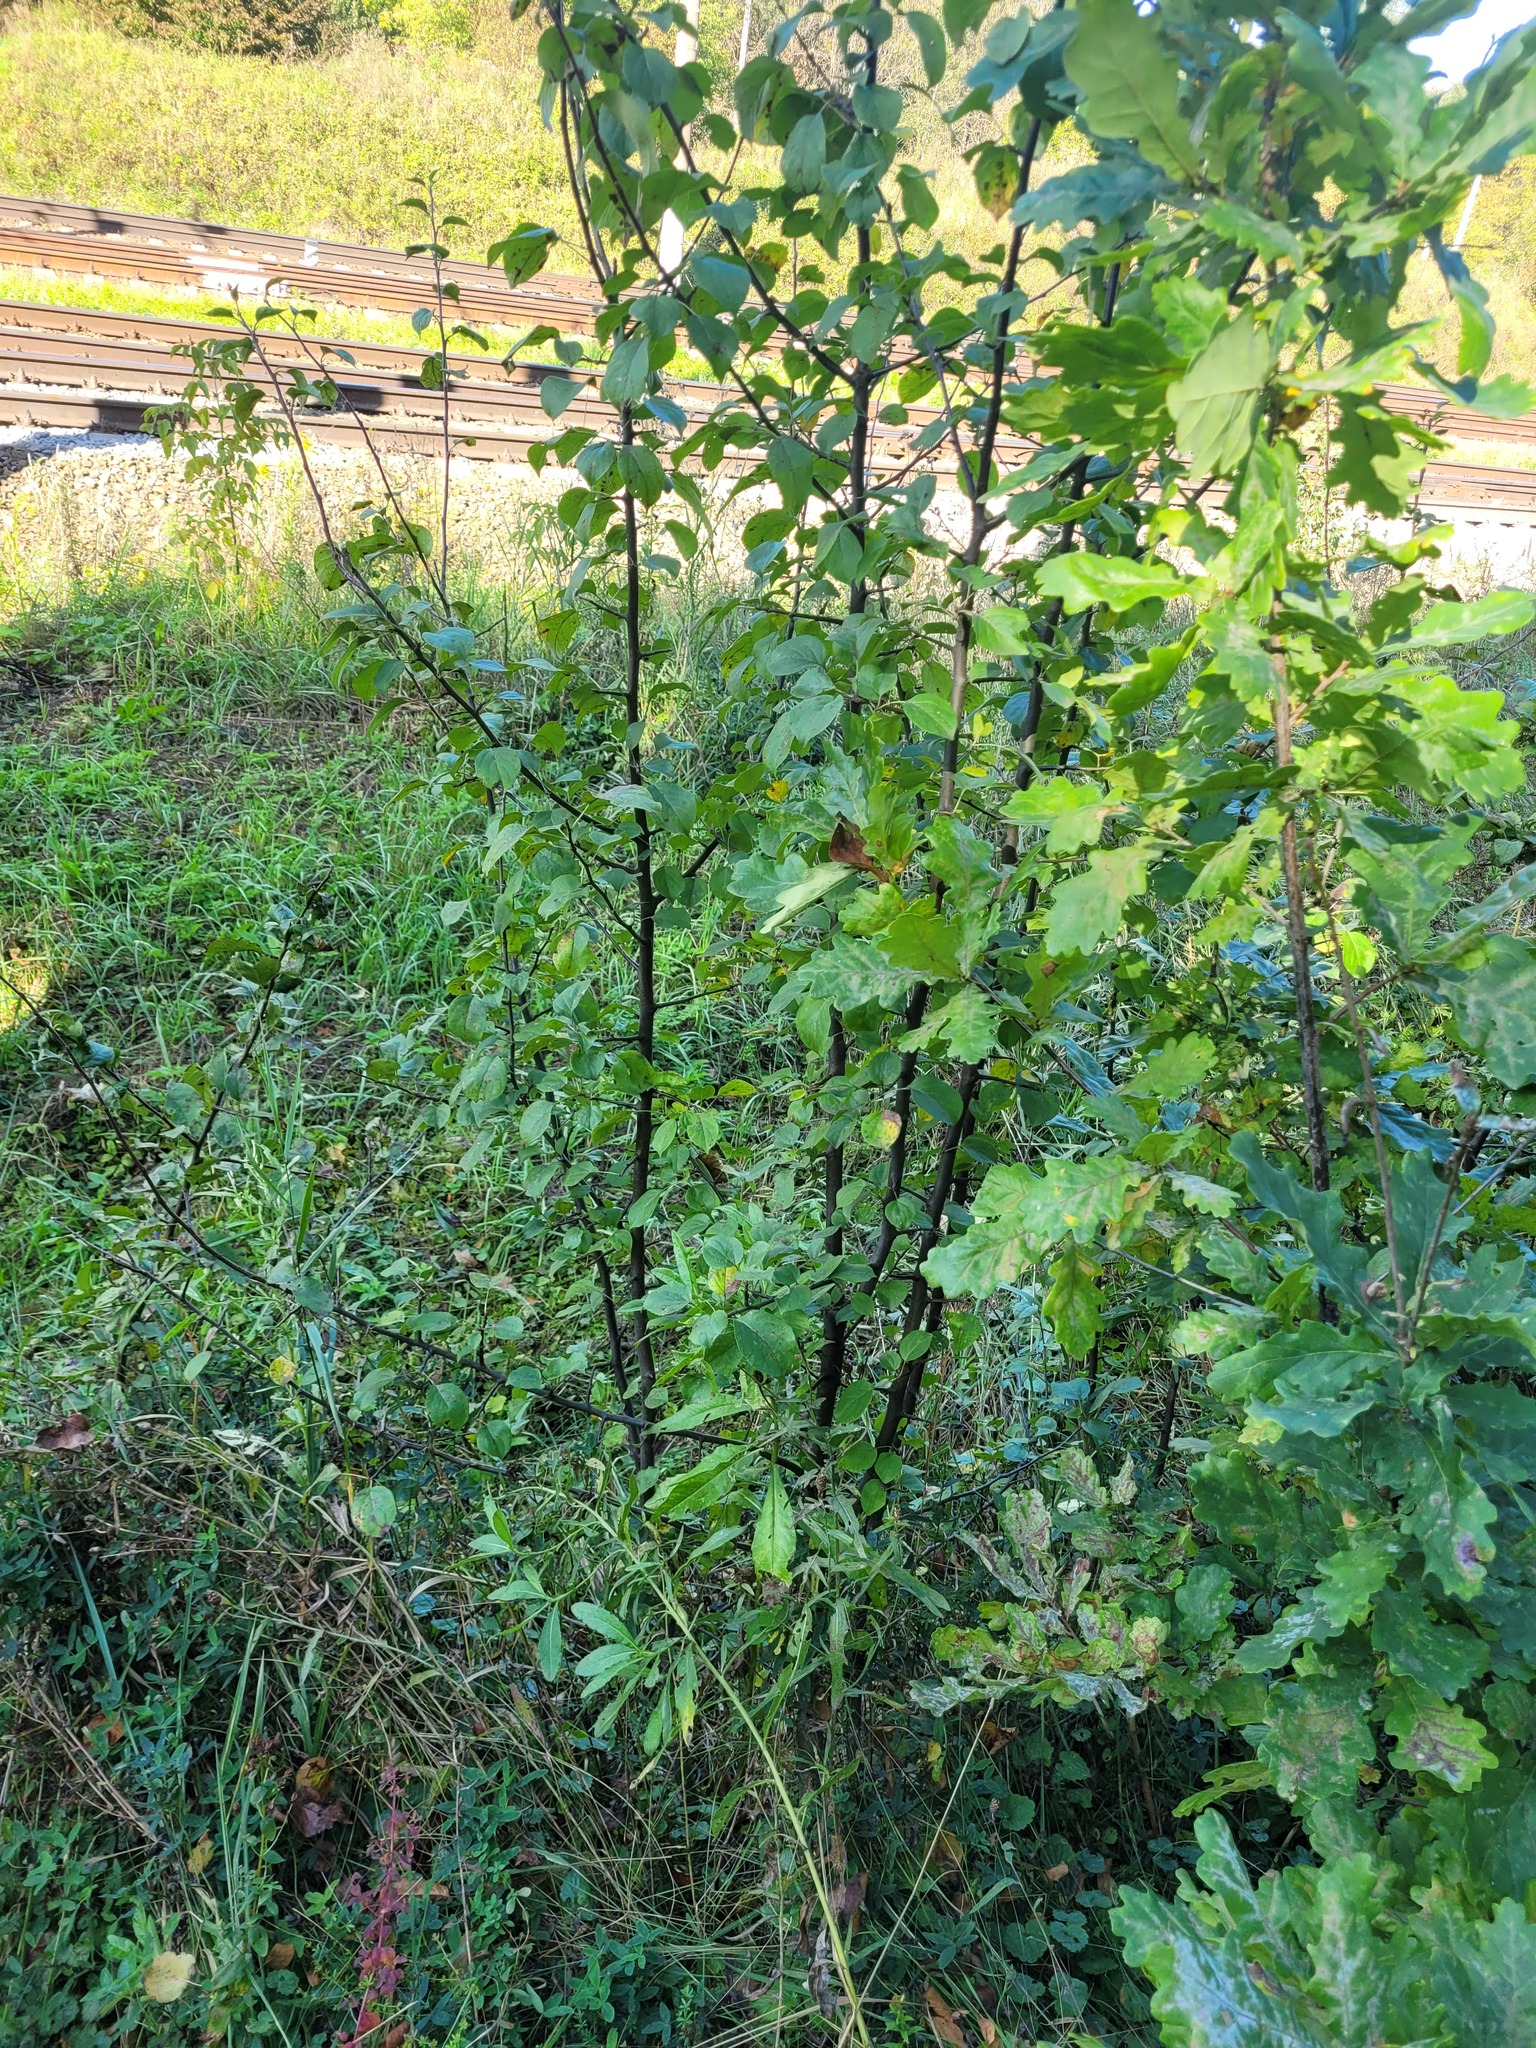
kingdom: Plantae
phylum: Tracheophyta
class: Magnoliopsida
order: Rosales
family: Rosaceae
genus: Malus
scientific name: Malus domestica
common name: Apple
